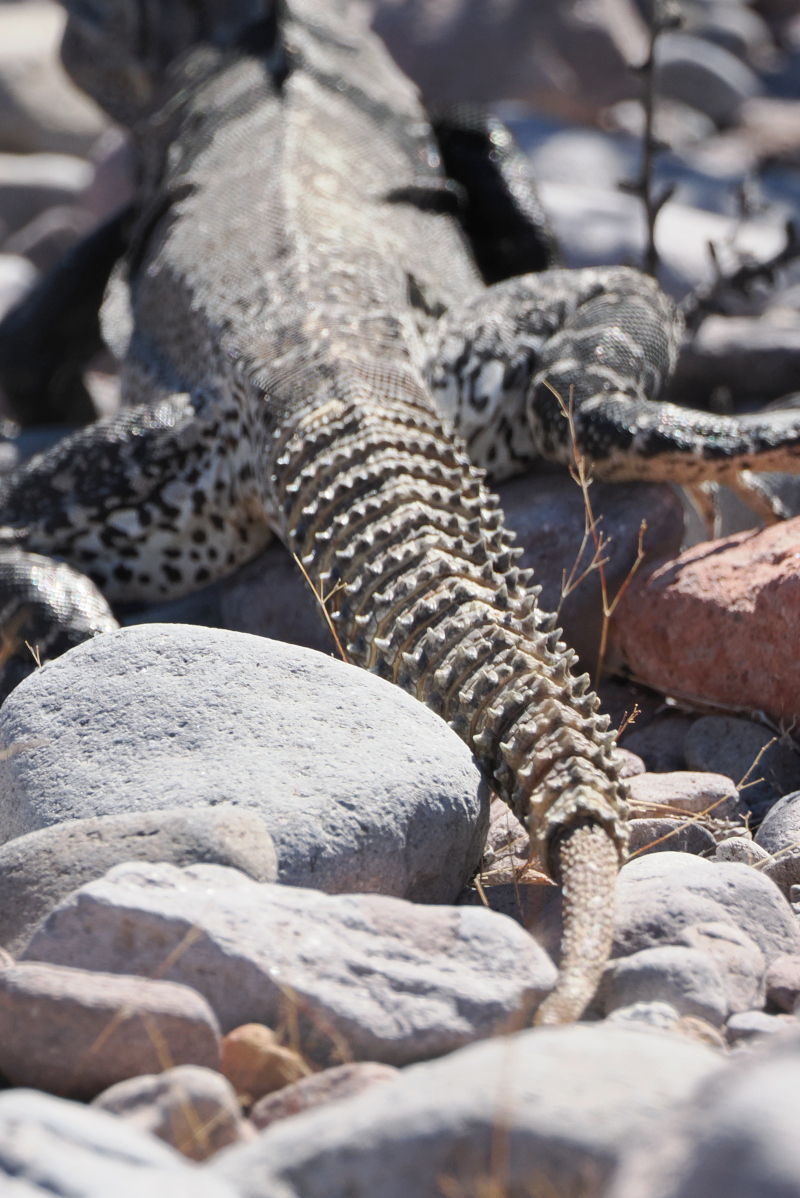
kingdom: Animalia
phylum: Chordata
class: Squamata
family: Iguanidae
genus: Ctenosaura
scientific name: Ctenosaura conspicuosa
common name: San esteban spinytail iguana
